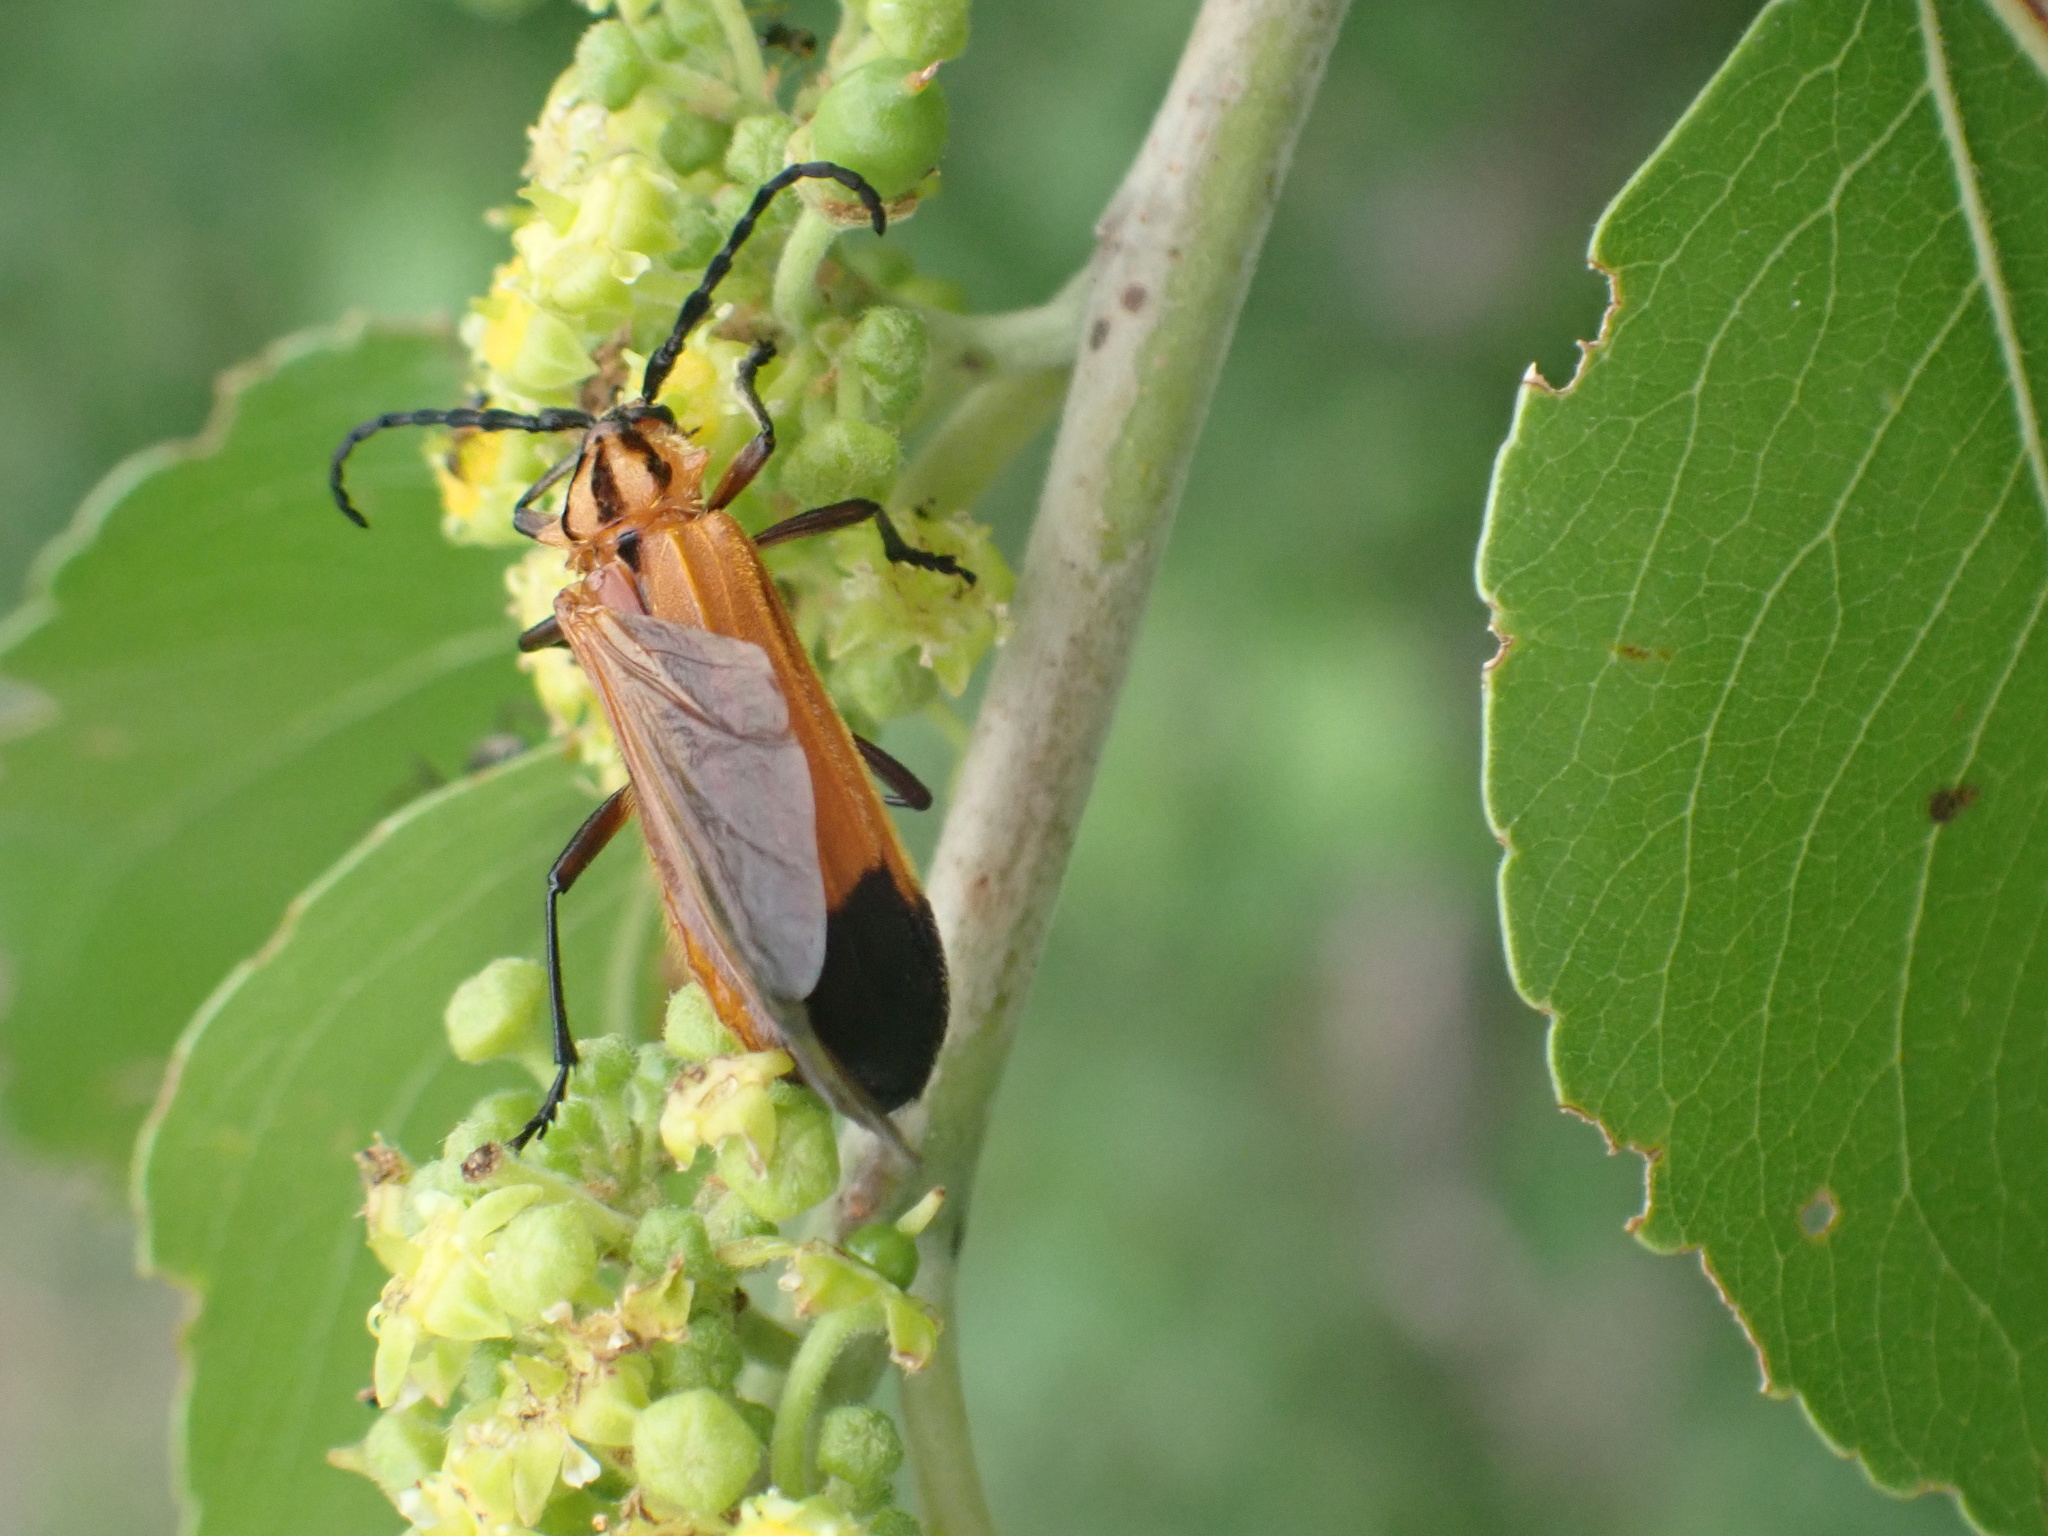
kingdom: Animalia
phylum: Arthropoda
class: Insecta
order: Coleoptera
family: Cerambycidae
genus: Amphidesmus
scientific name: Amphidesmus analis
